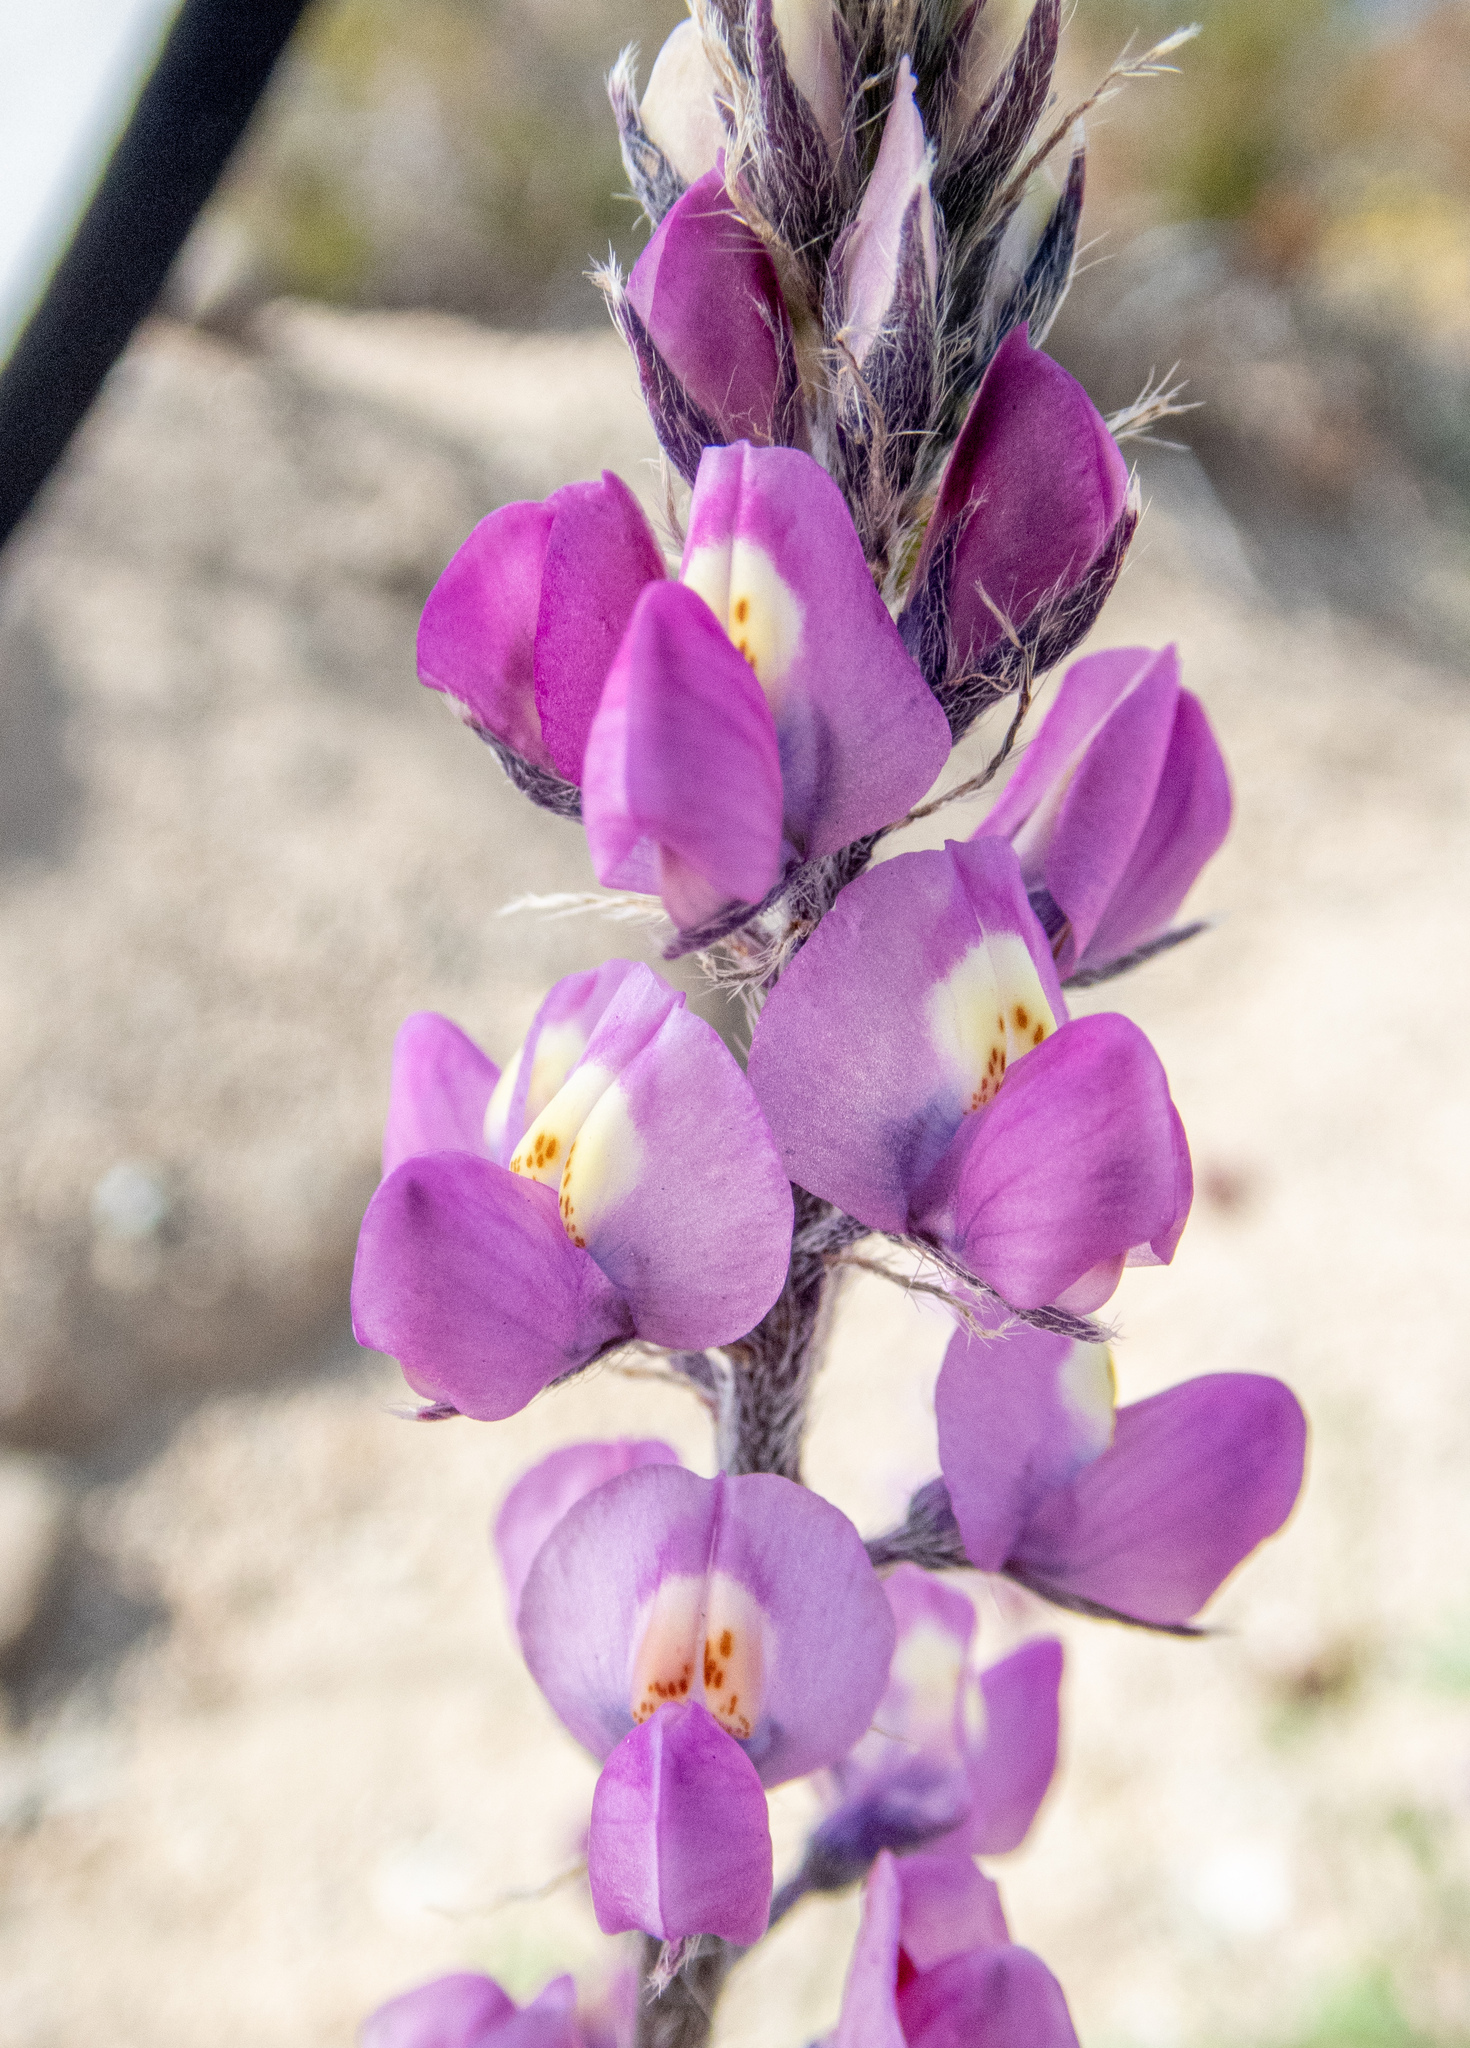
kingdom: Plantae
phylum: Tracheophyta
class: Magnoliopsida
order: Fabales
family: Fabaceae
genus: Lupinus
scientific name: Lupinus arizonicus
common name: Arizona lupine
